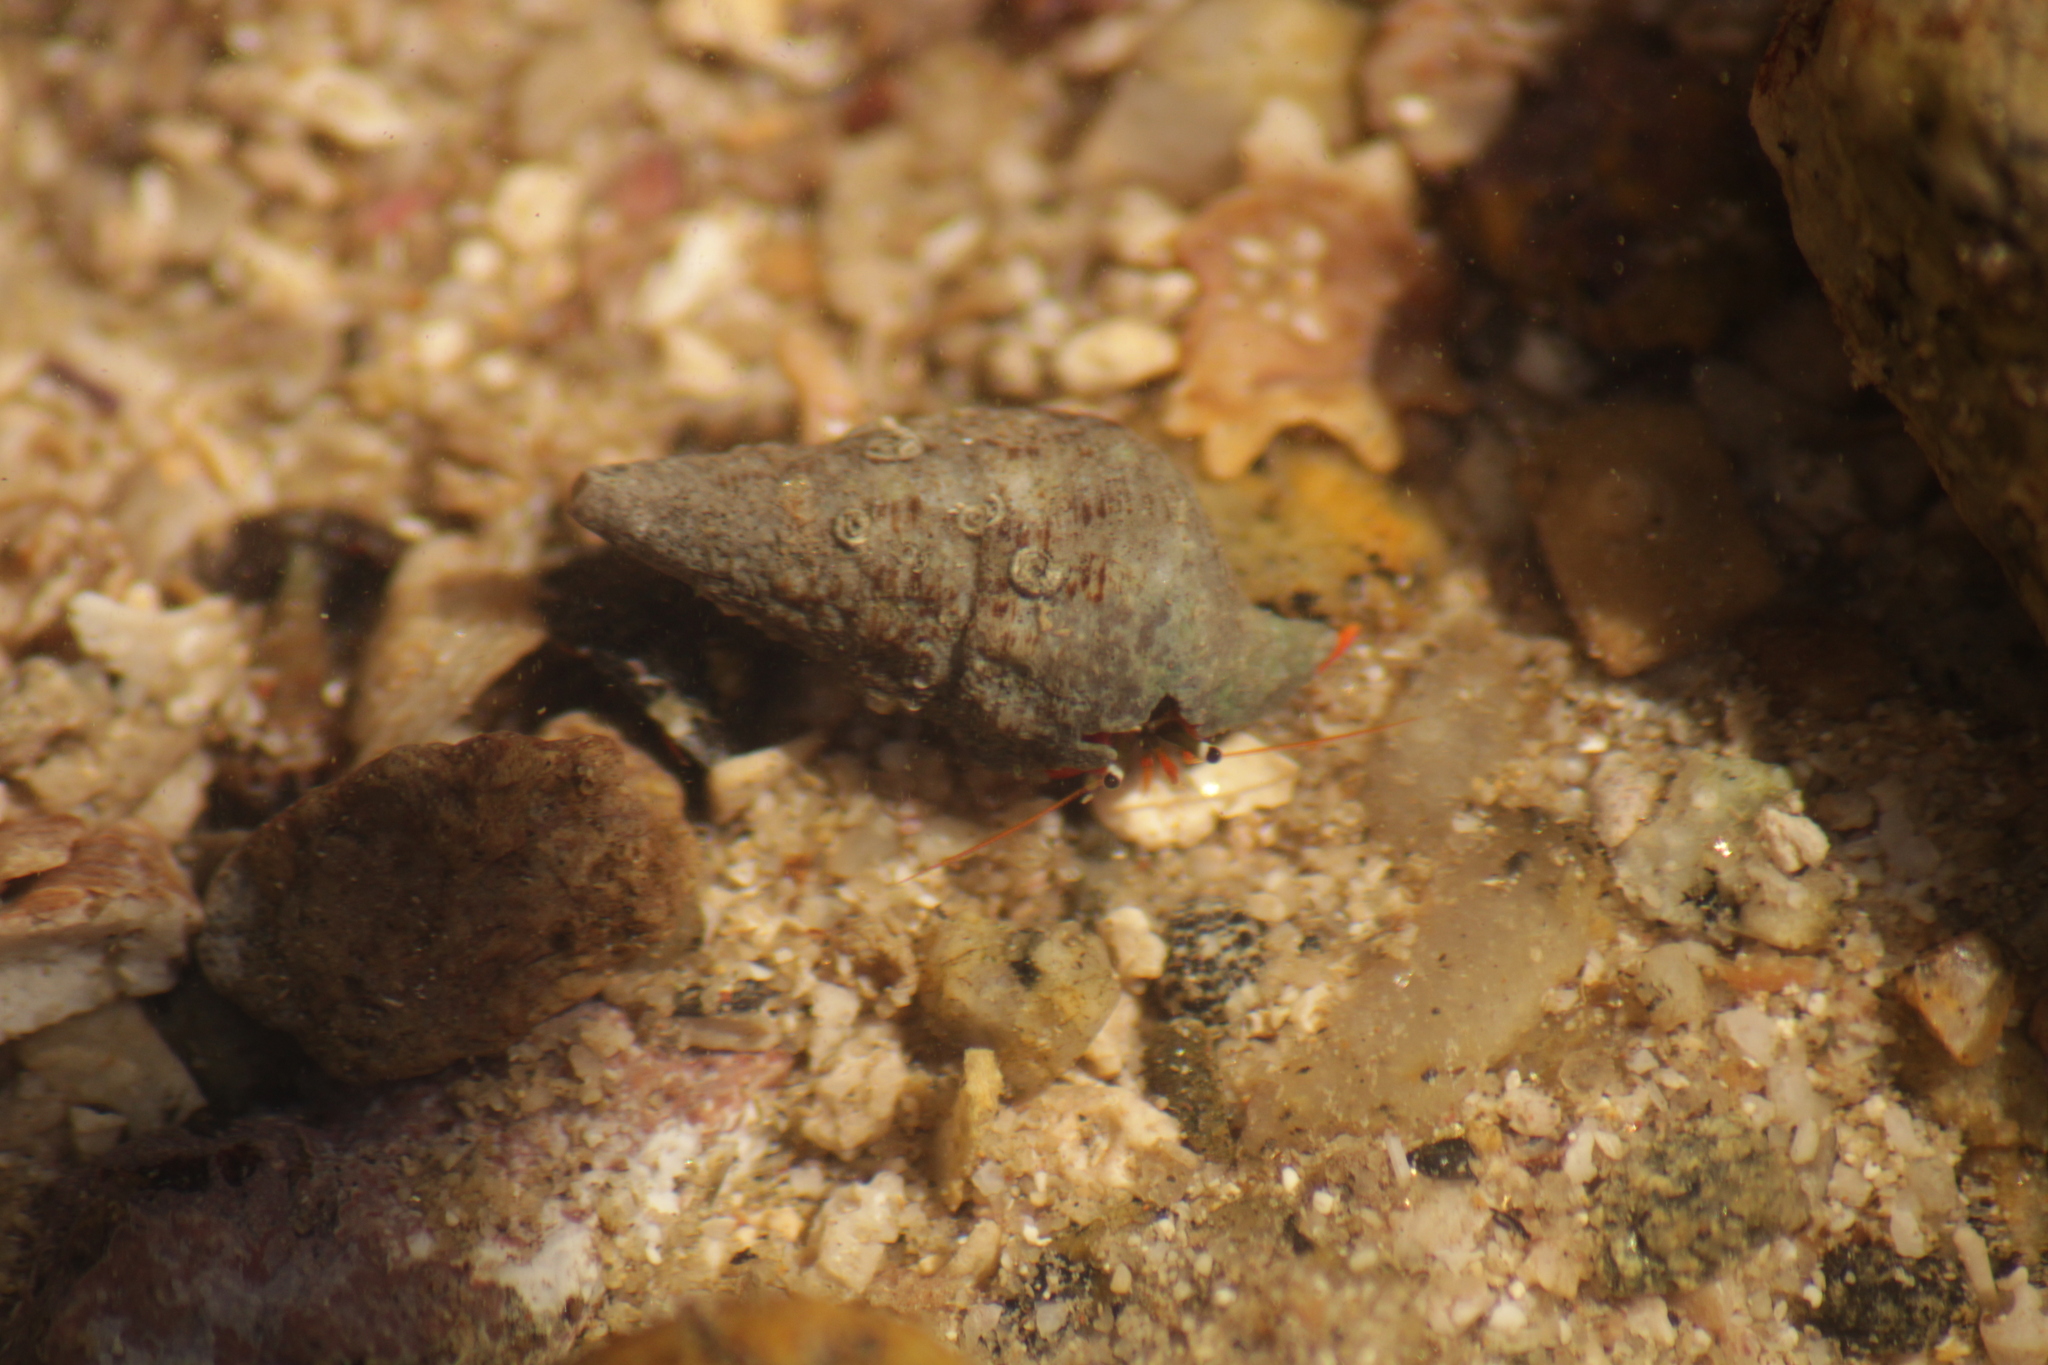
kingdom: Animalia
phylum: Arthropoda
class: Malacostraca
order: Decapoda
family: Diogenidae
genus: Calcinus
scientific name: Calcinus californiensis
